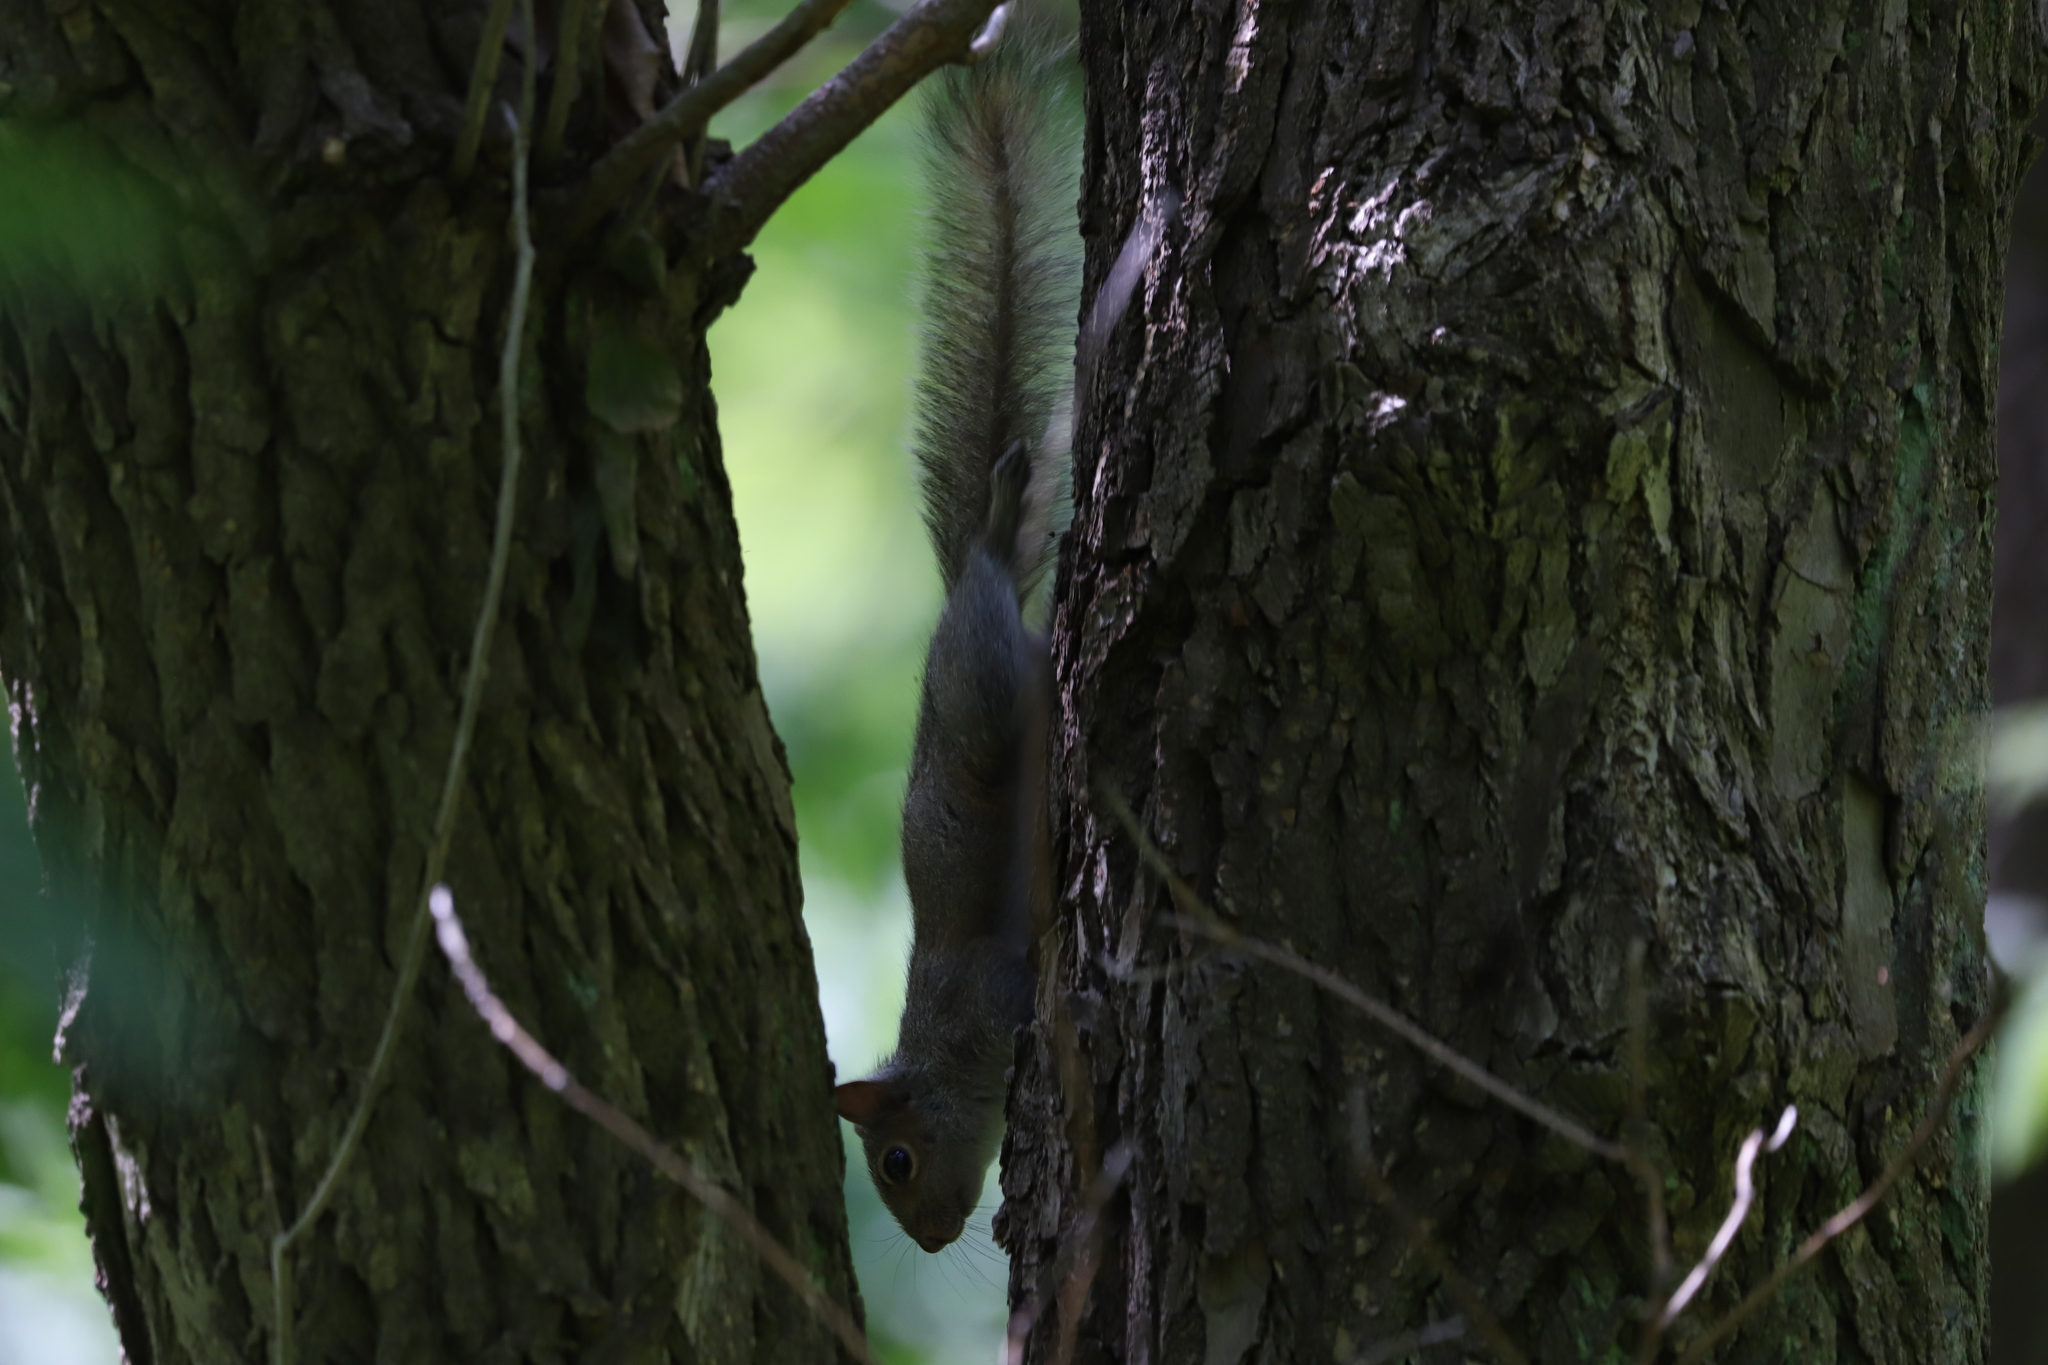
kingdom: Animalia
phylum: Chordata
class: Mammalia
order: Rodentia
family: Sciuridae
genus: Sciurus
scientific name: Sciurus carolinensis
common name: Eastern gray squirrel
